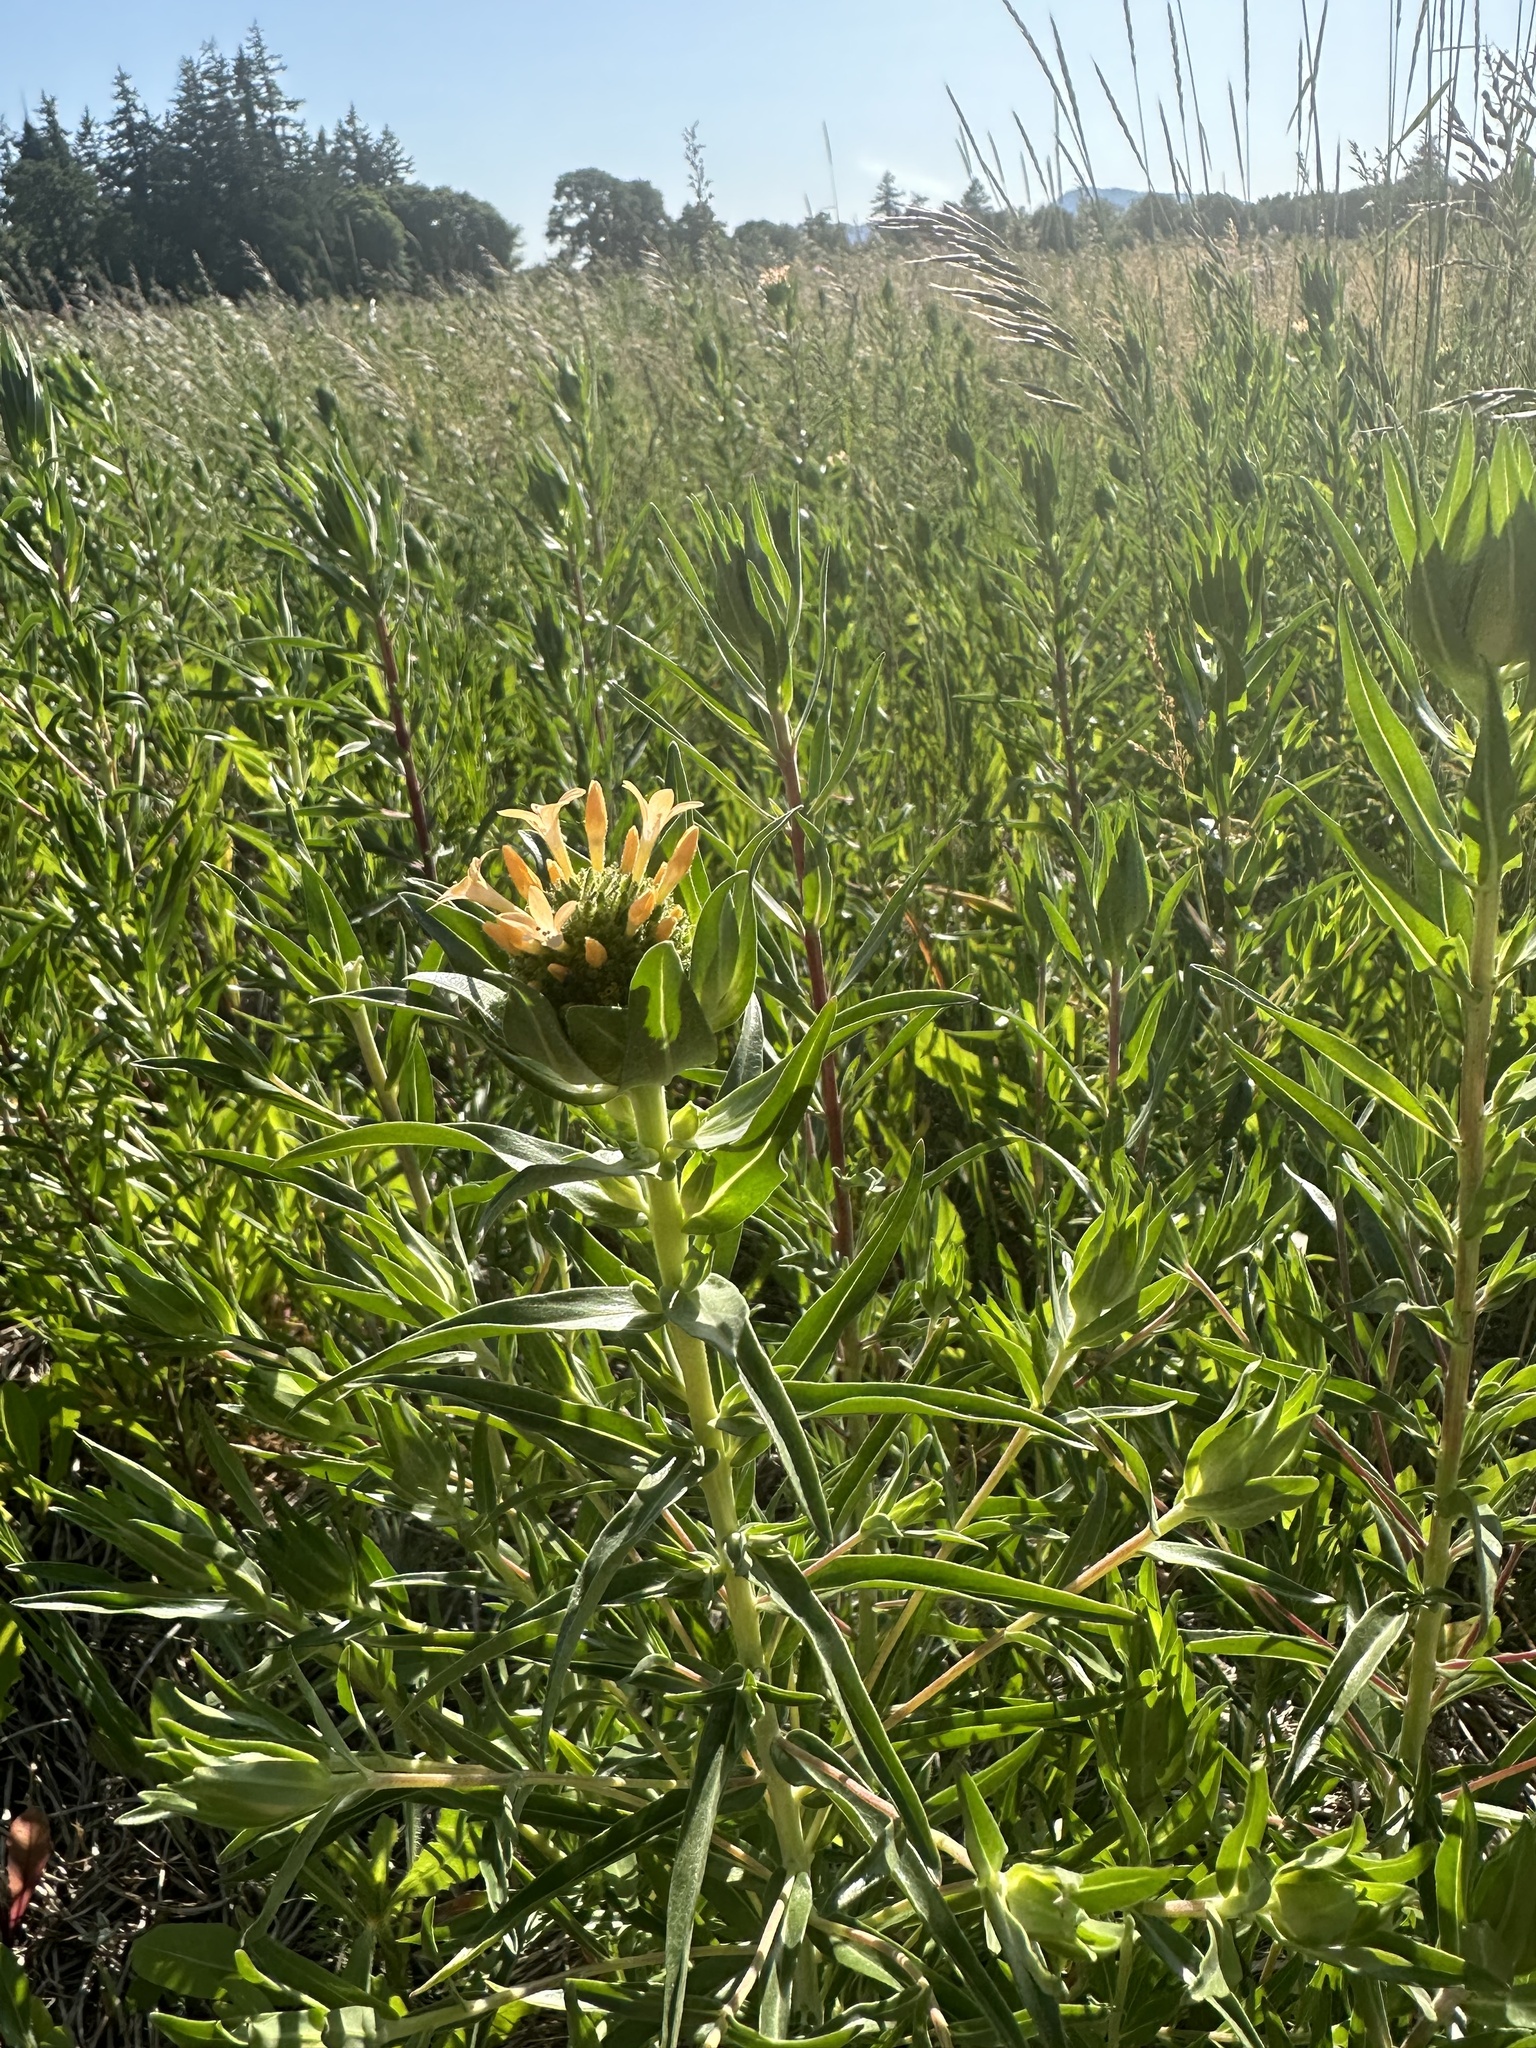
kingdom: Plantae
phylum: Tracheophyta
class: Magnoliopsida
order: Ericales
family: Polemoniaceae
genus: Collomia
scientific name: Collomia grandiflora
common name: California strawflower
